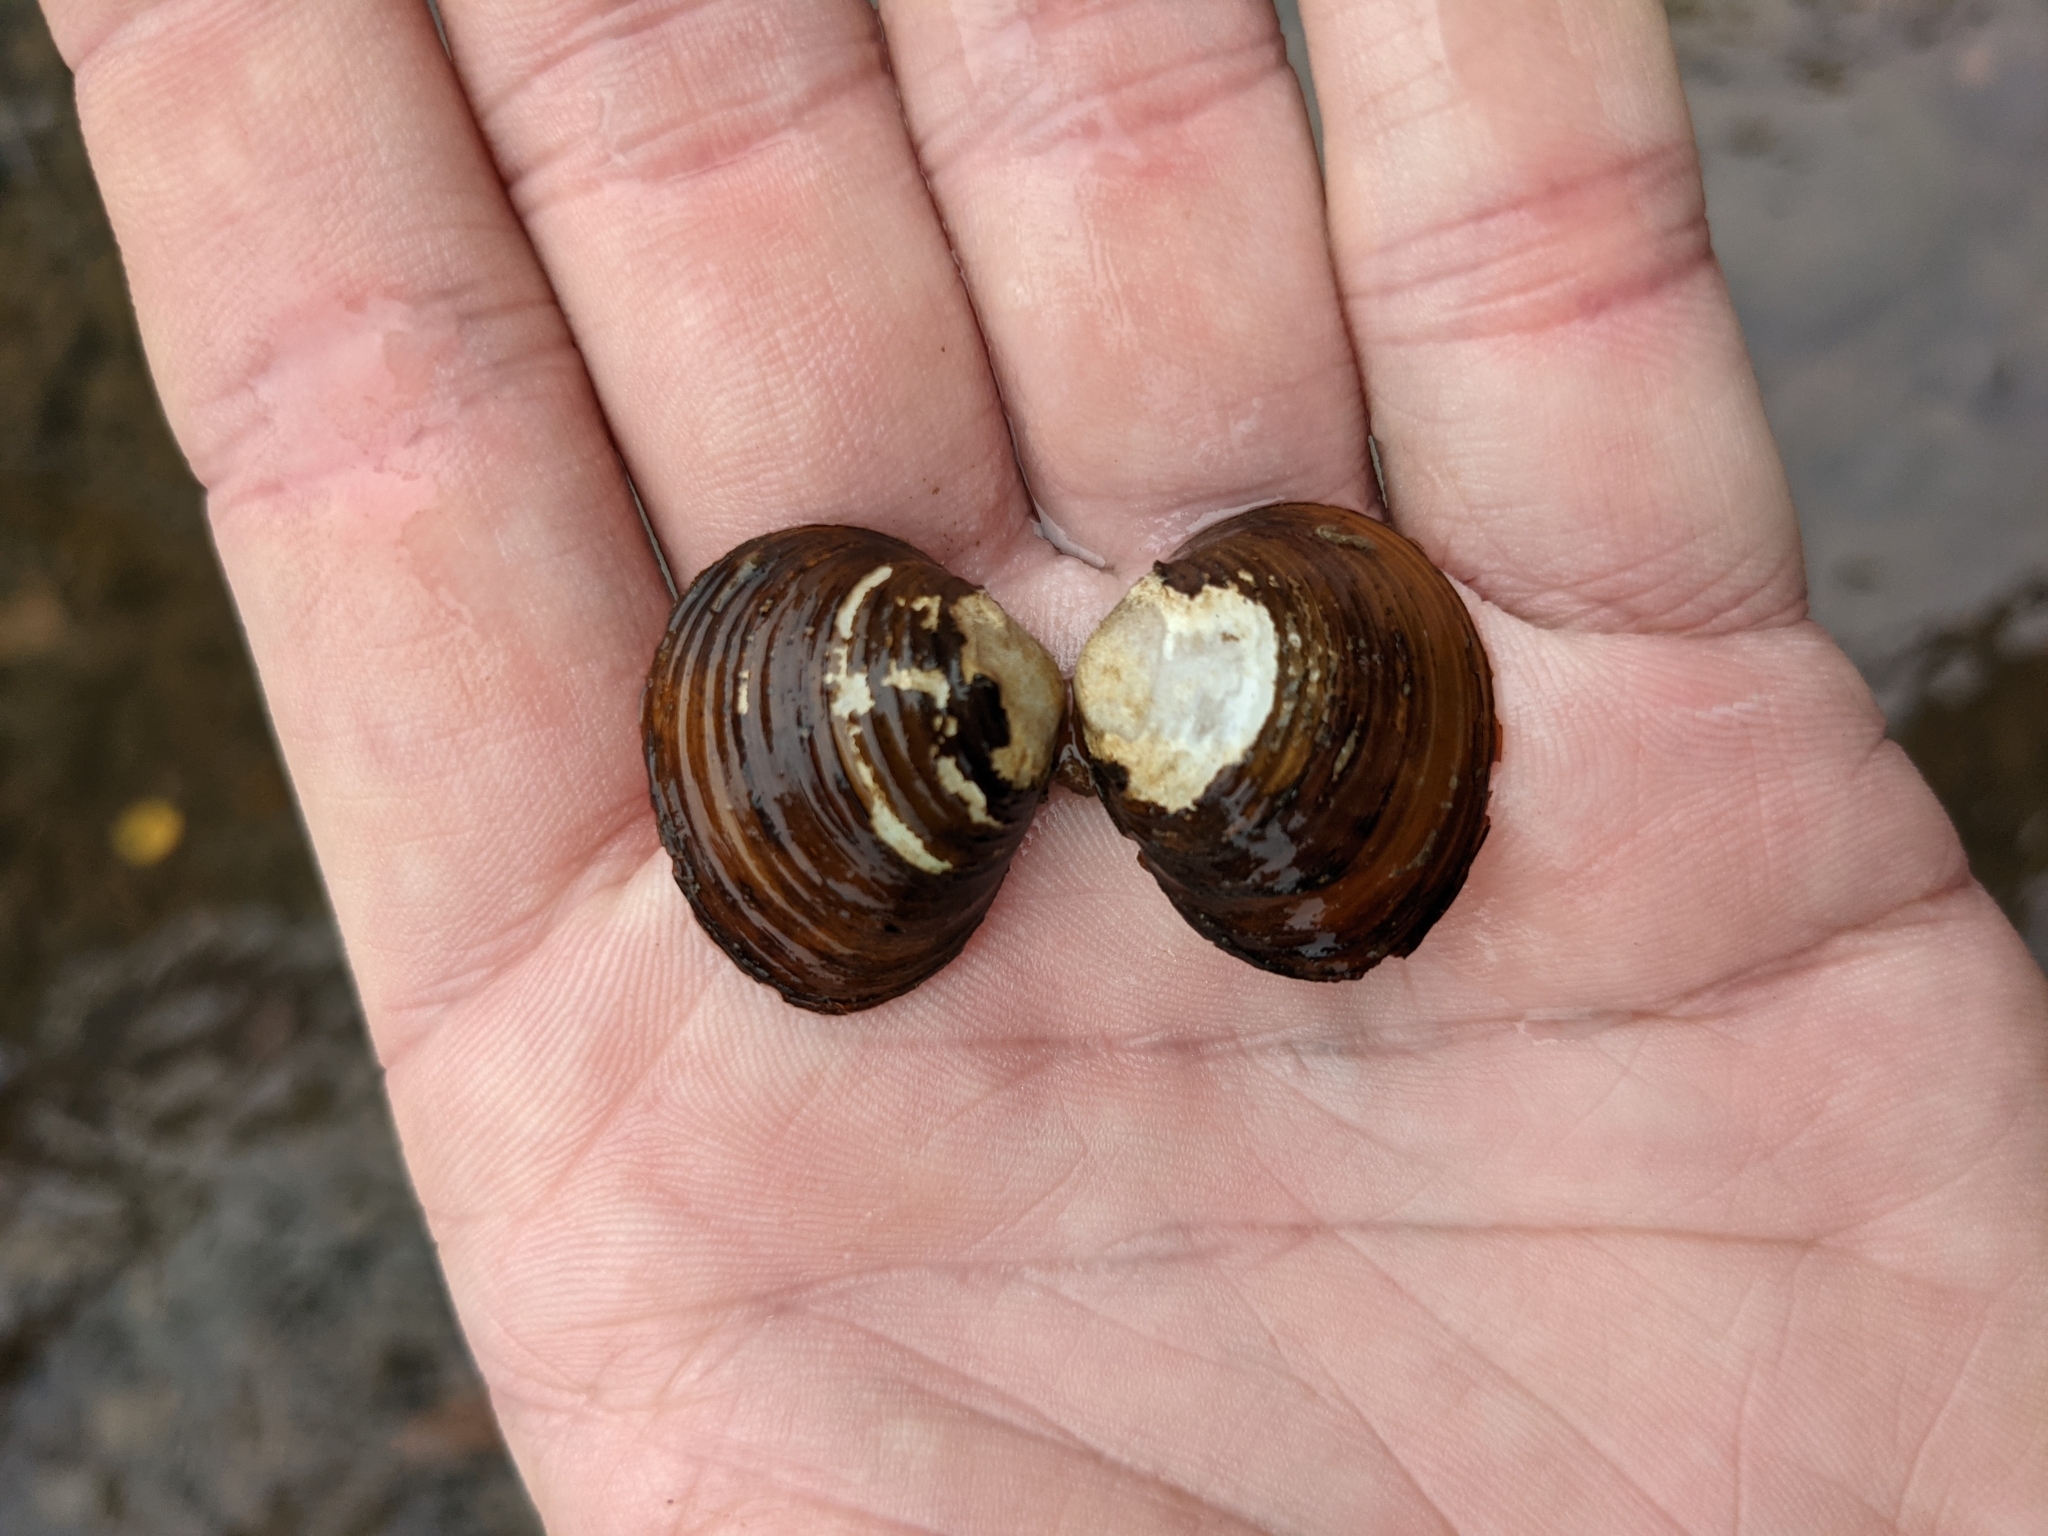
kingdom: Animalia
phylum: Mollusca
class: Bivalvia
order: Venerida
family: Cyrenidae
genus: Corbicula
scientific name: Corbicula fluminea
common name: Asian clam
